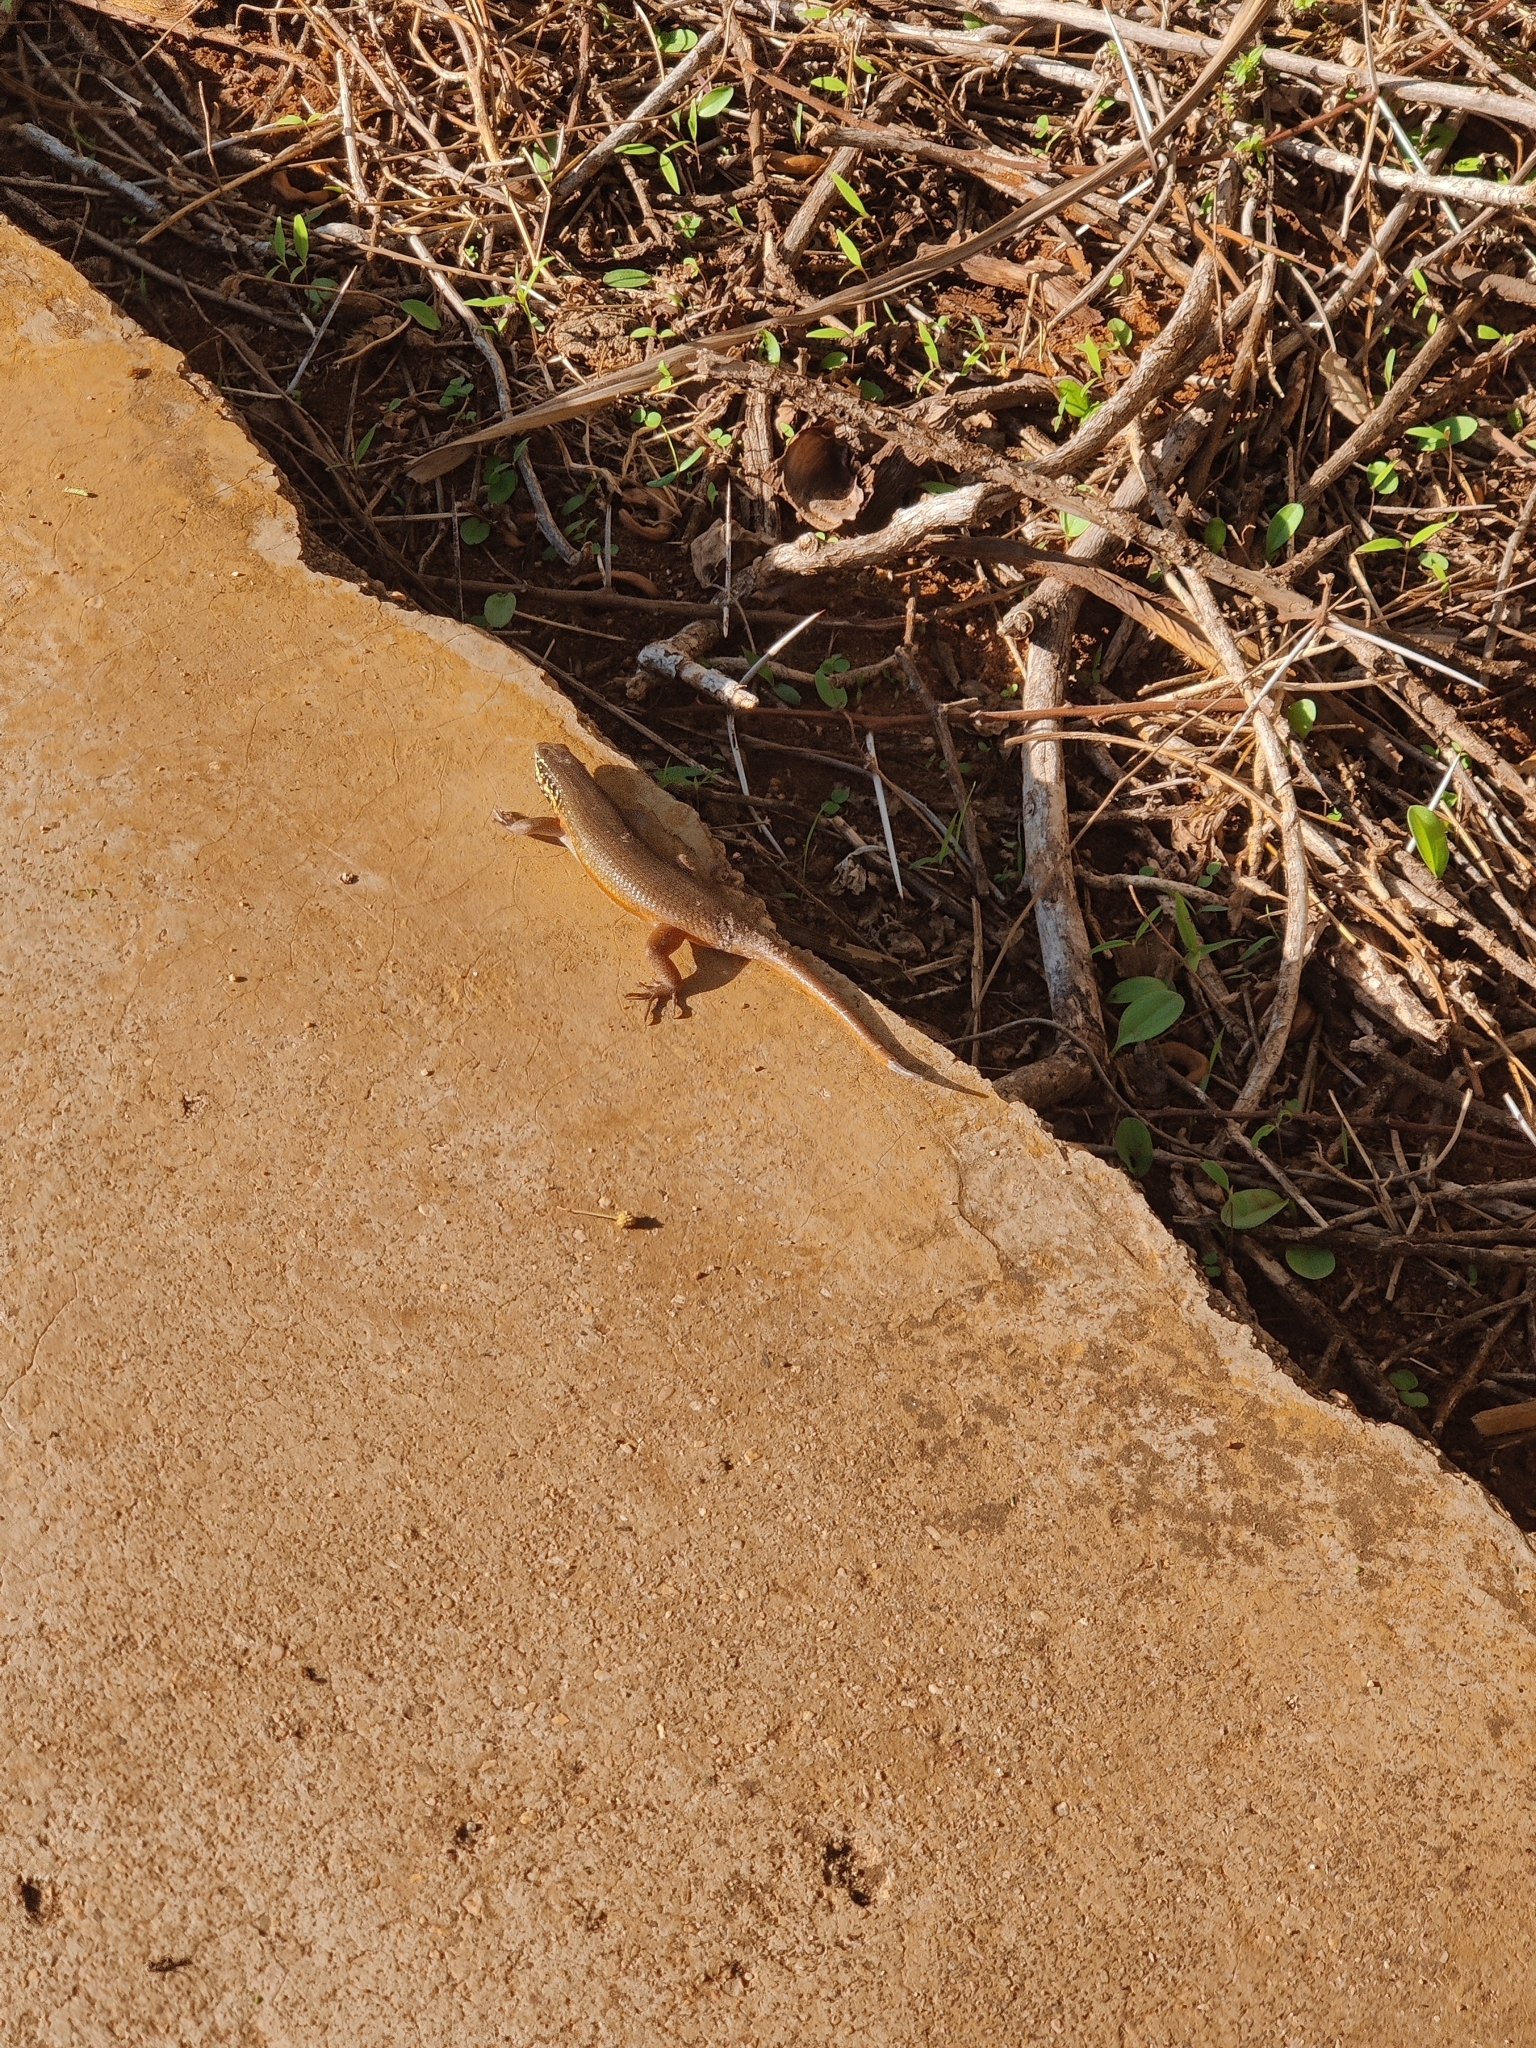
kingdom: Animalia
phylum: Chordata
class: Squamata
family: Scincidae
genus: Trachylepis
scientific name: Trachylepis quinquetaeniata
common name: African five-lined skink
